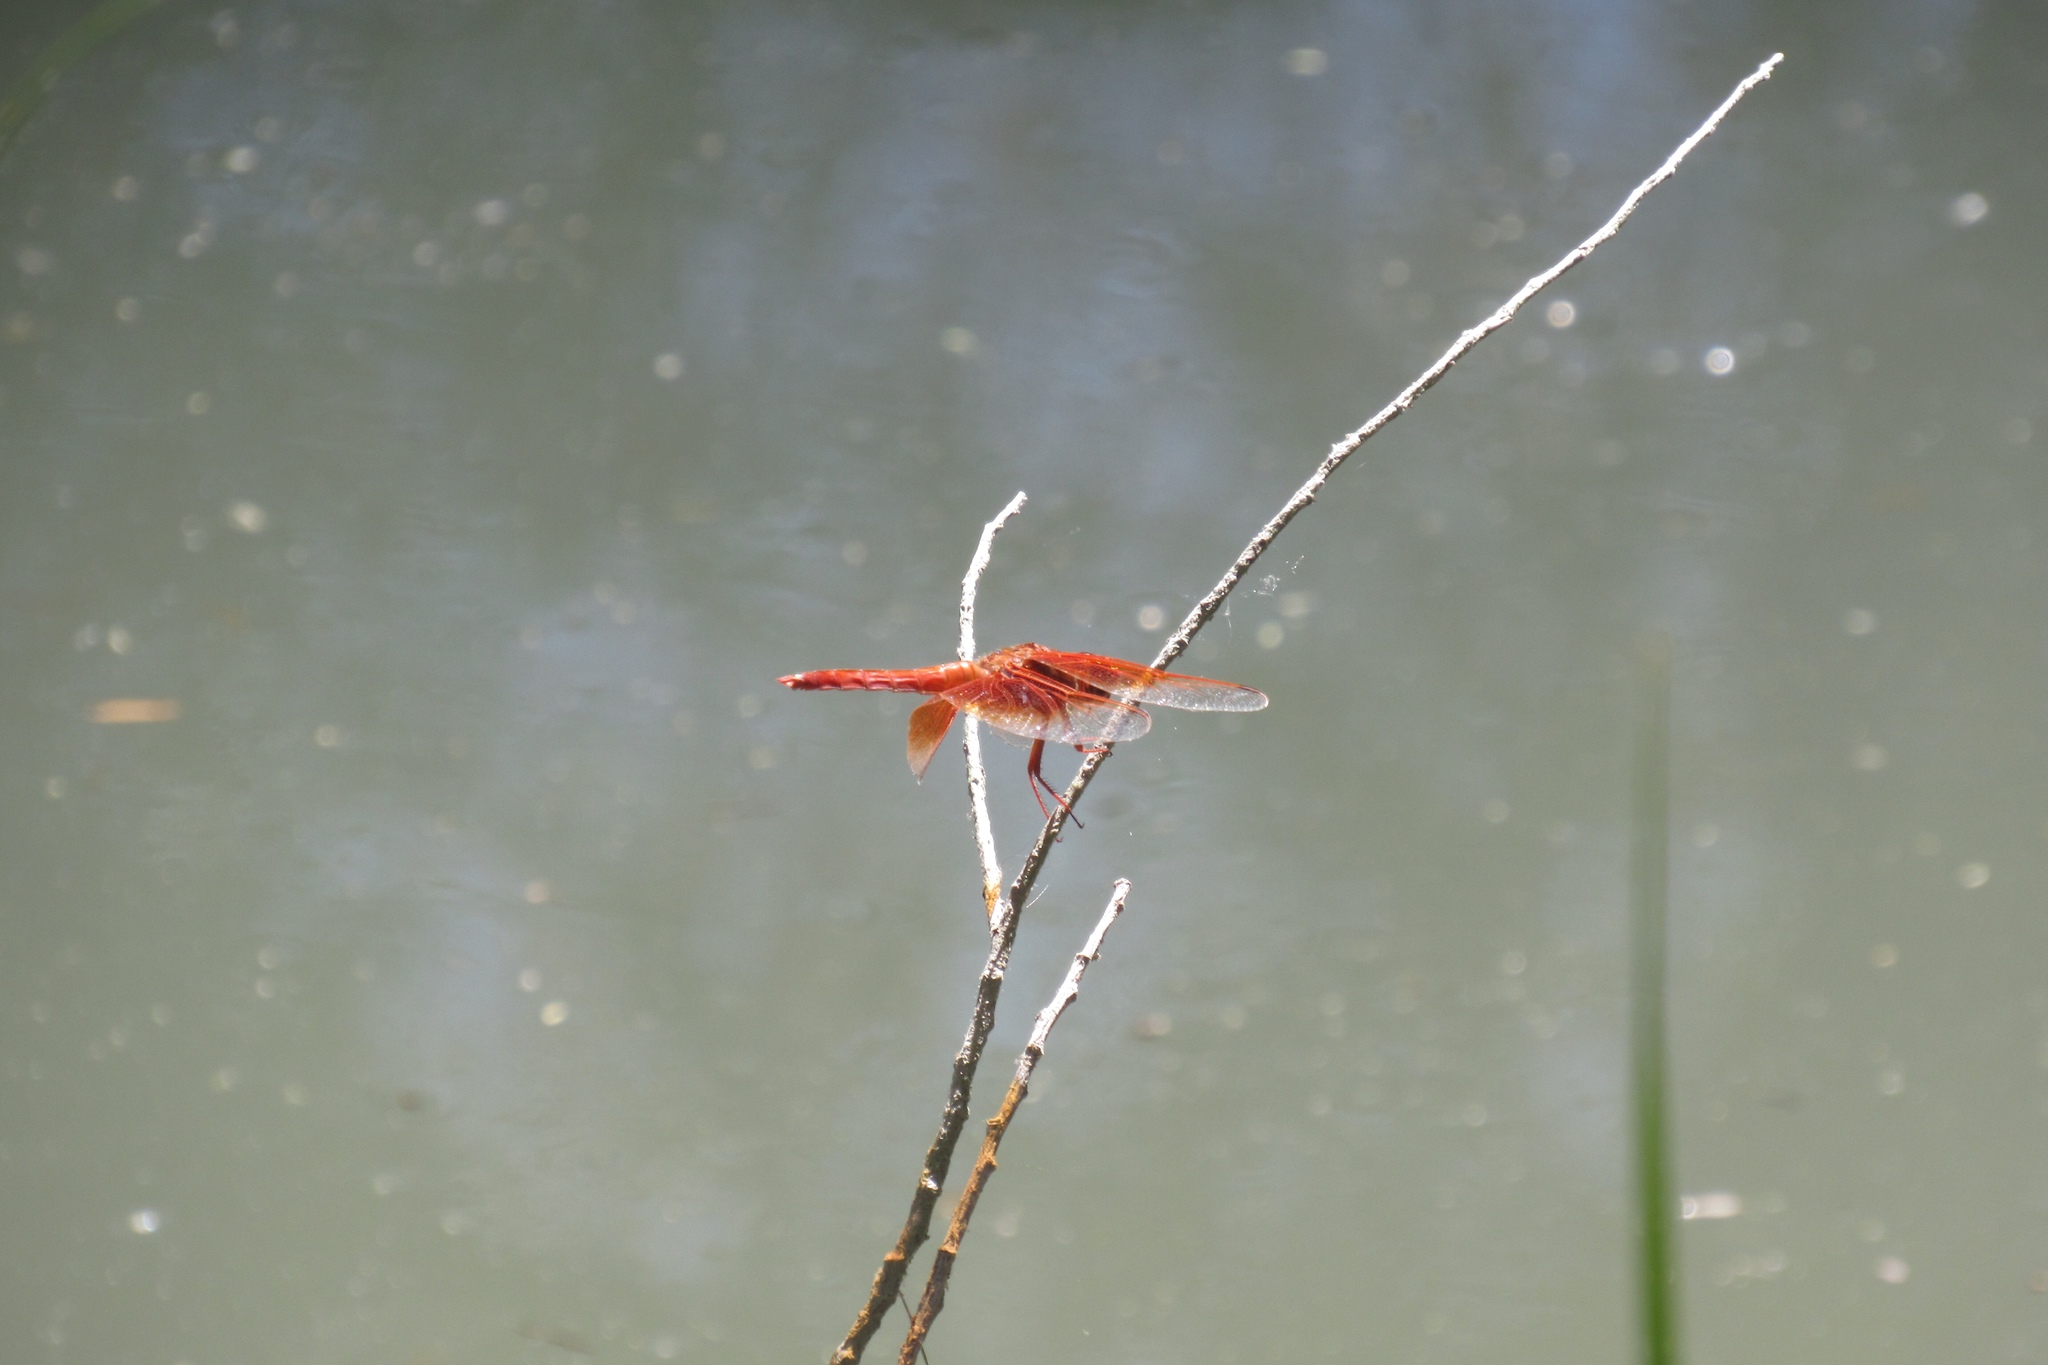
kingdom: Animalia
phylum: Arthropoda
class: Insecta
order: Odonata
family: Libellulidae
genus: Libellula
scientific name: Libellula saturata
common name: Flame skimmer
